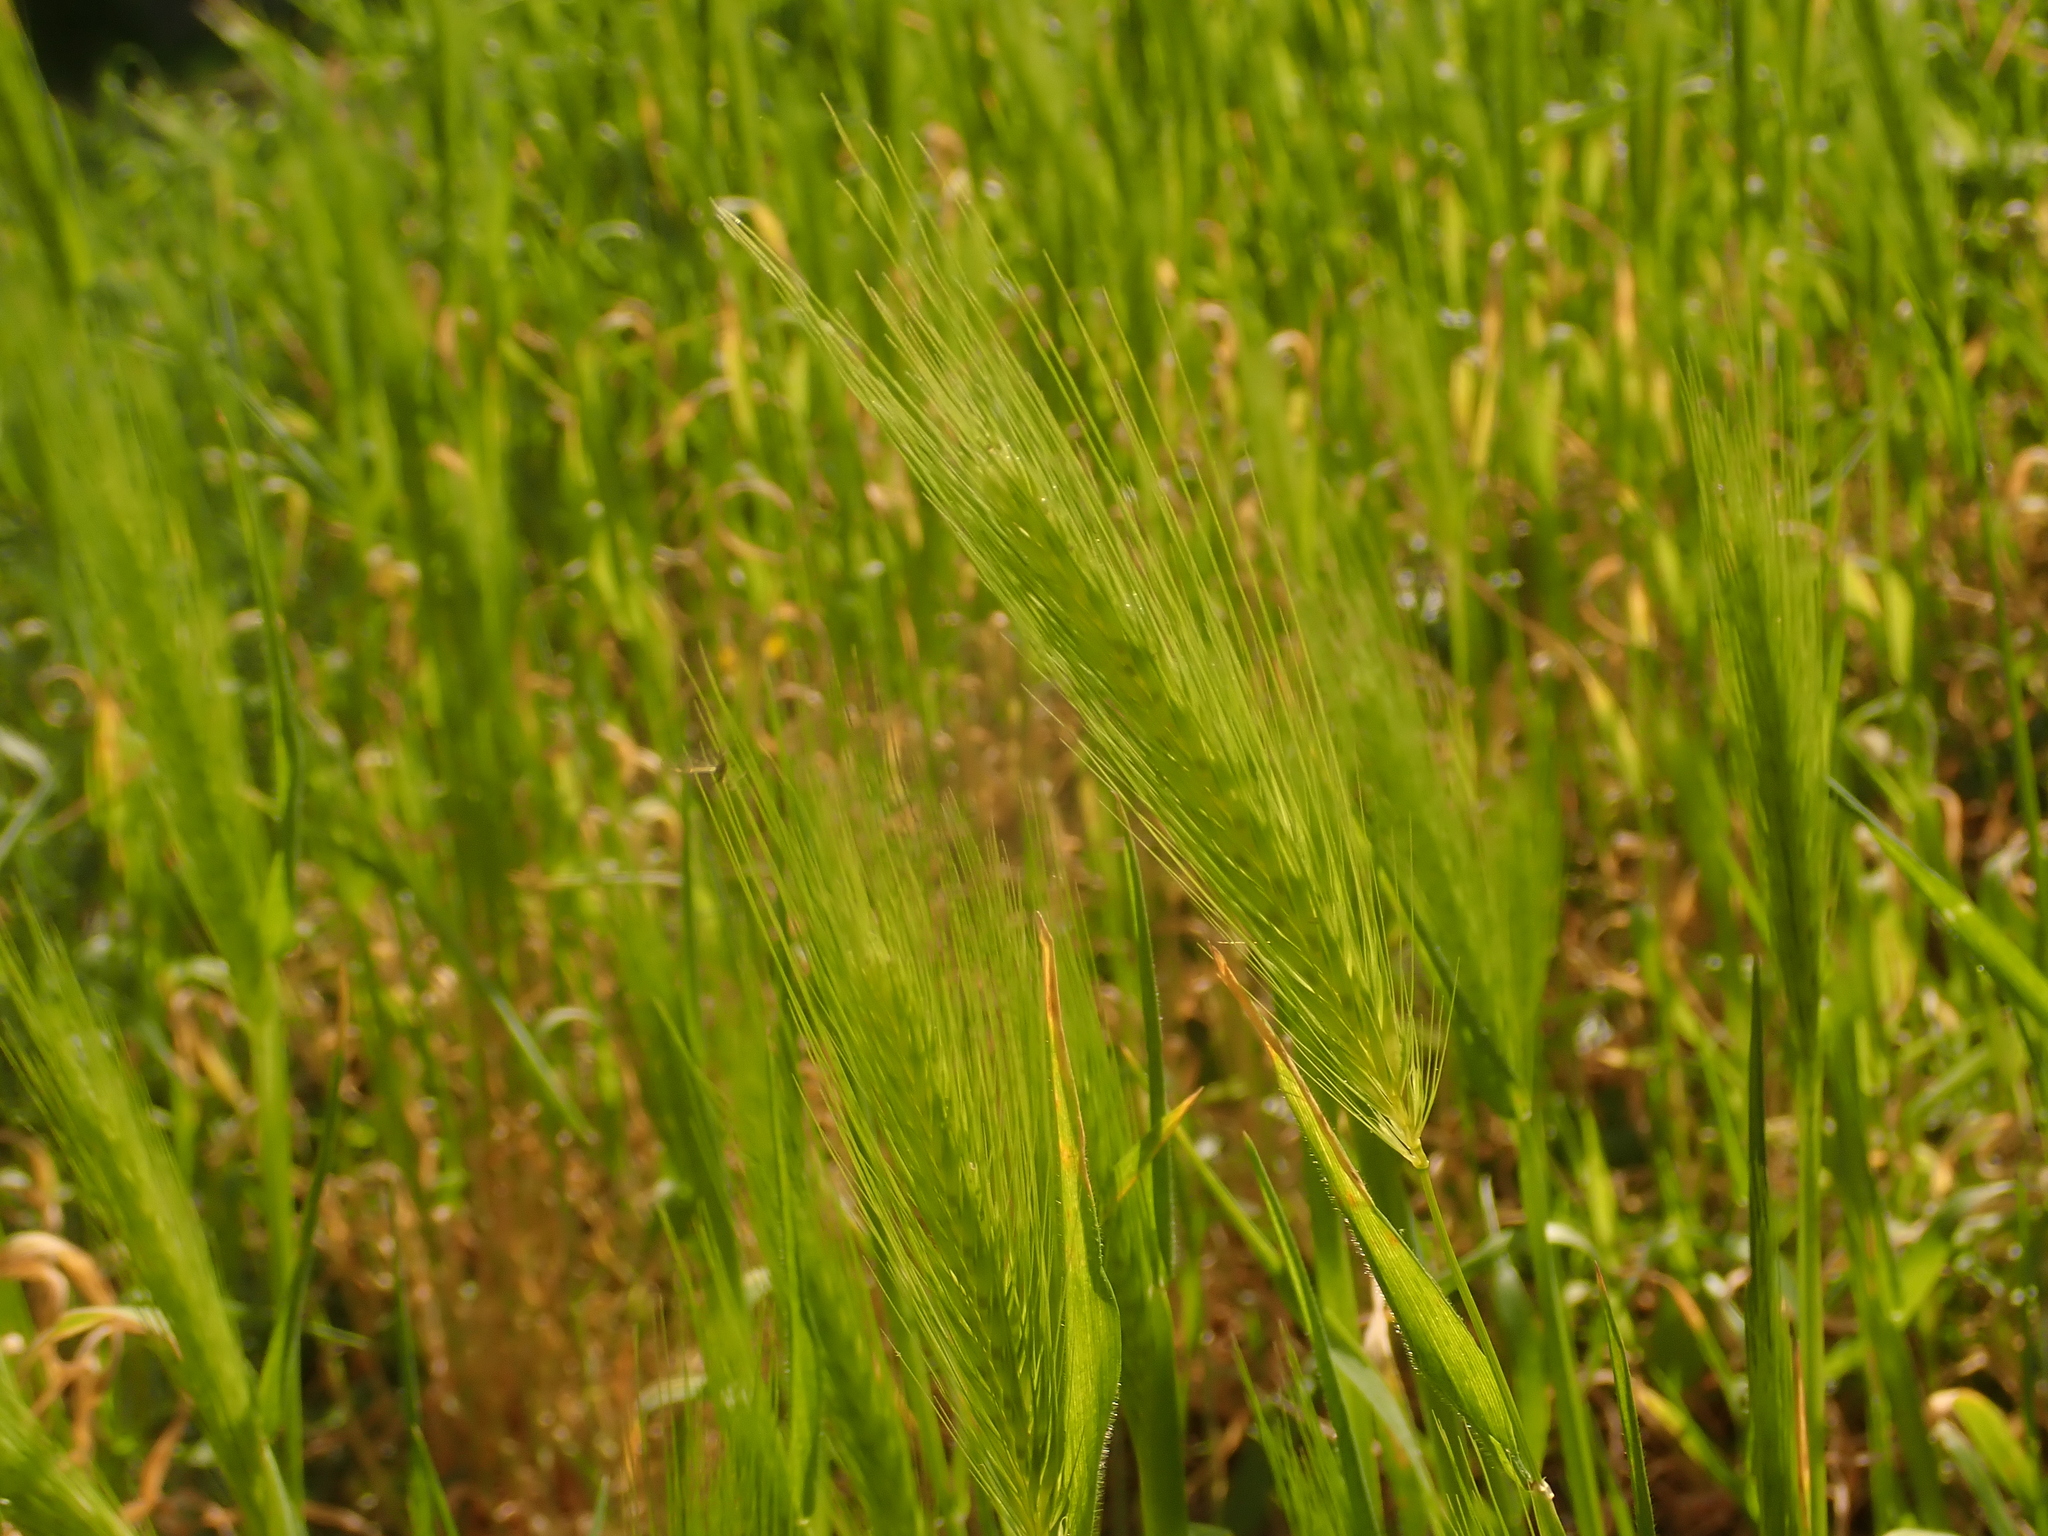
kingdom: Plantae
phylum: Tracheophyta
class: Liliopsida
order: Poales
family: Poaceae
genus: Hordeum
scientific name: Hordeum murinum
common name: Wall barley
